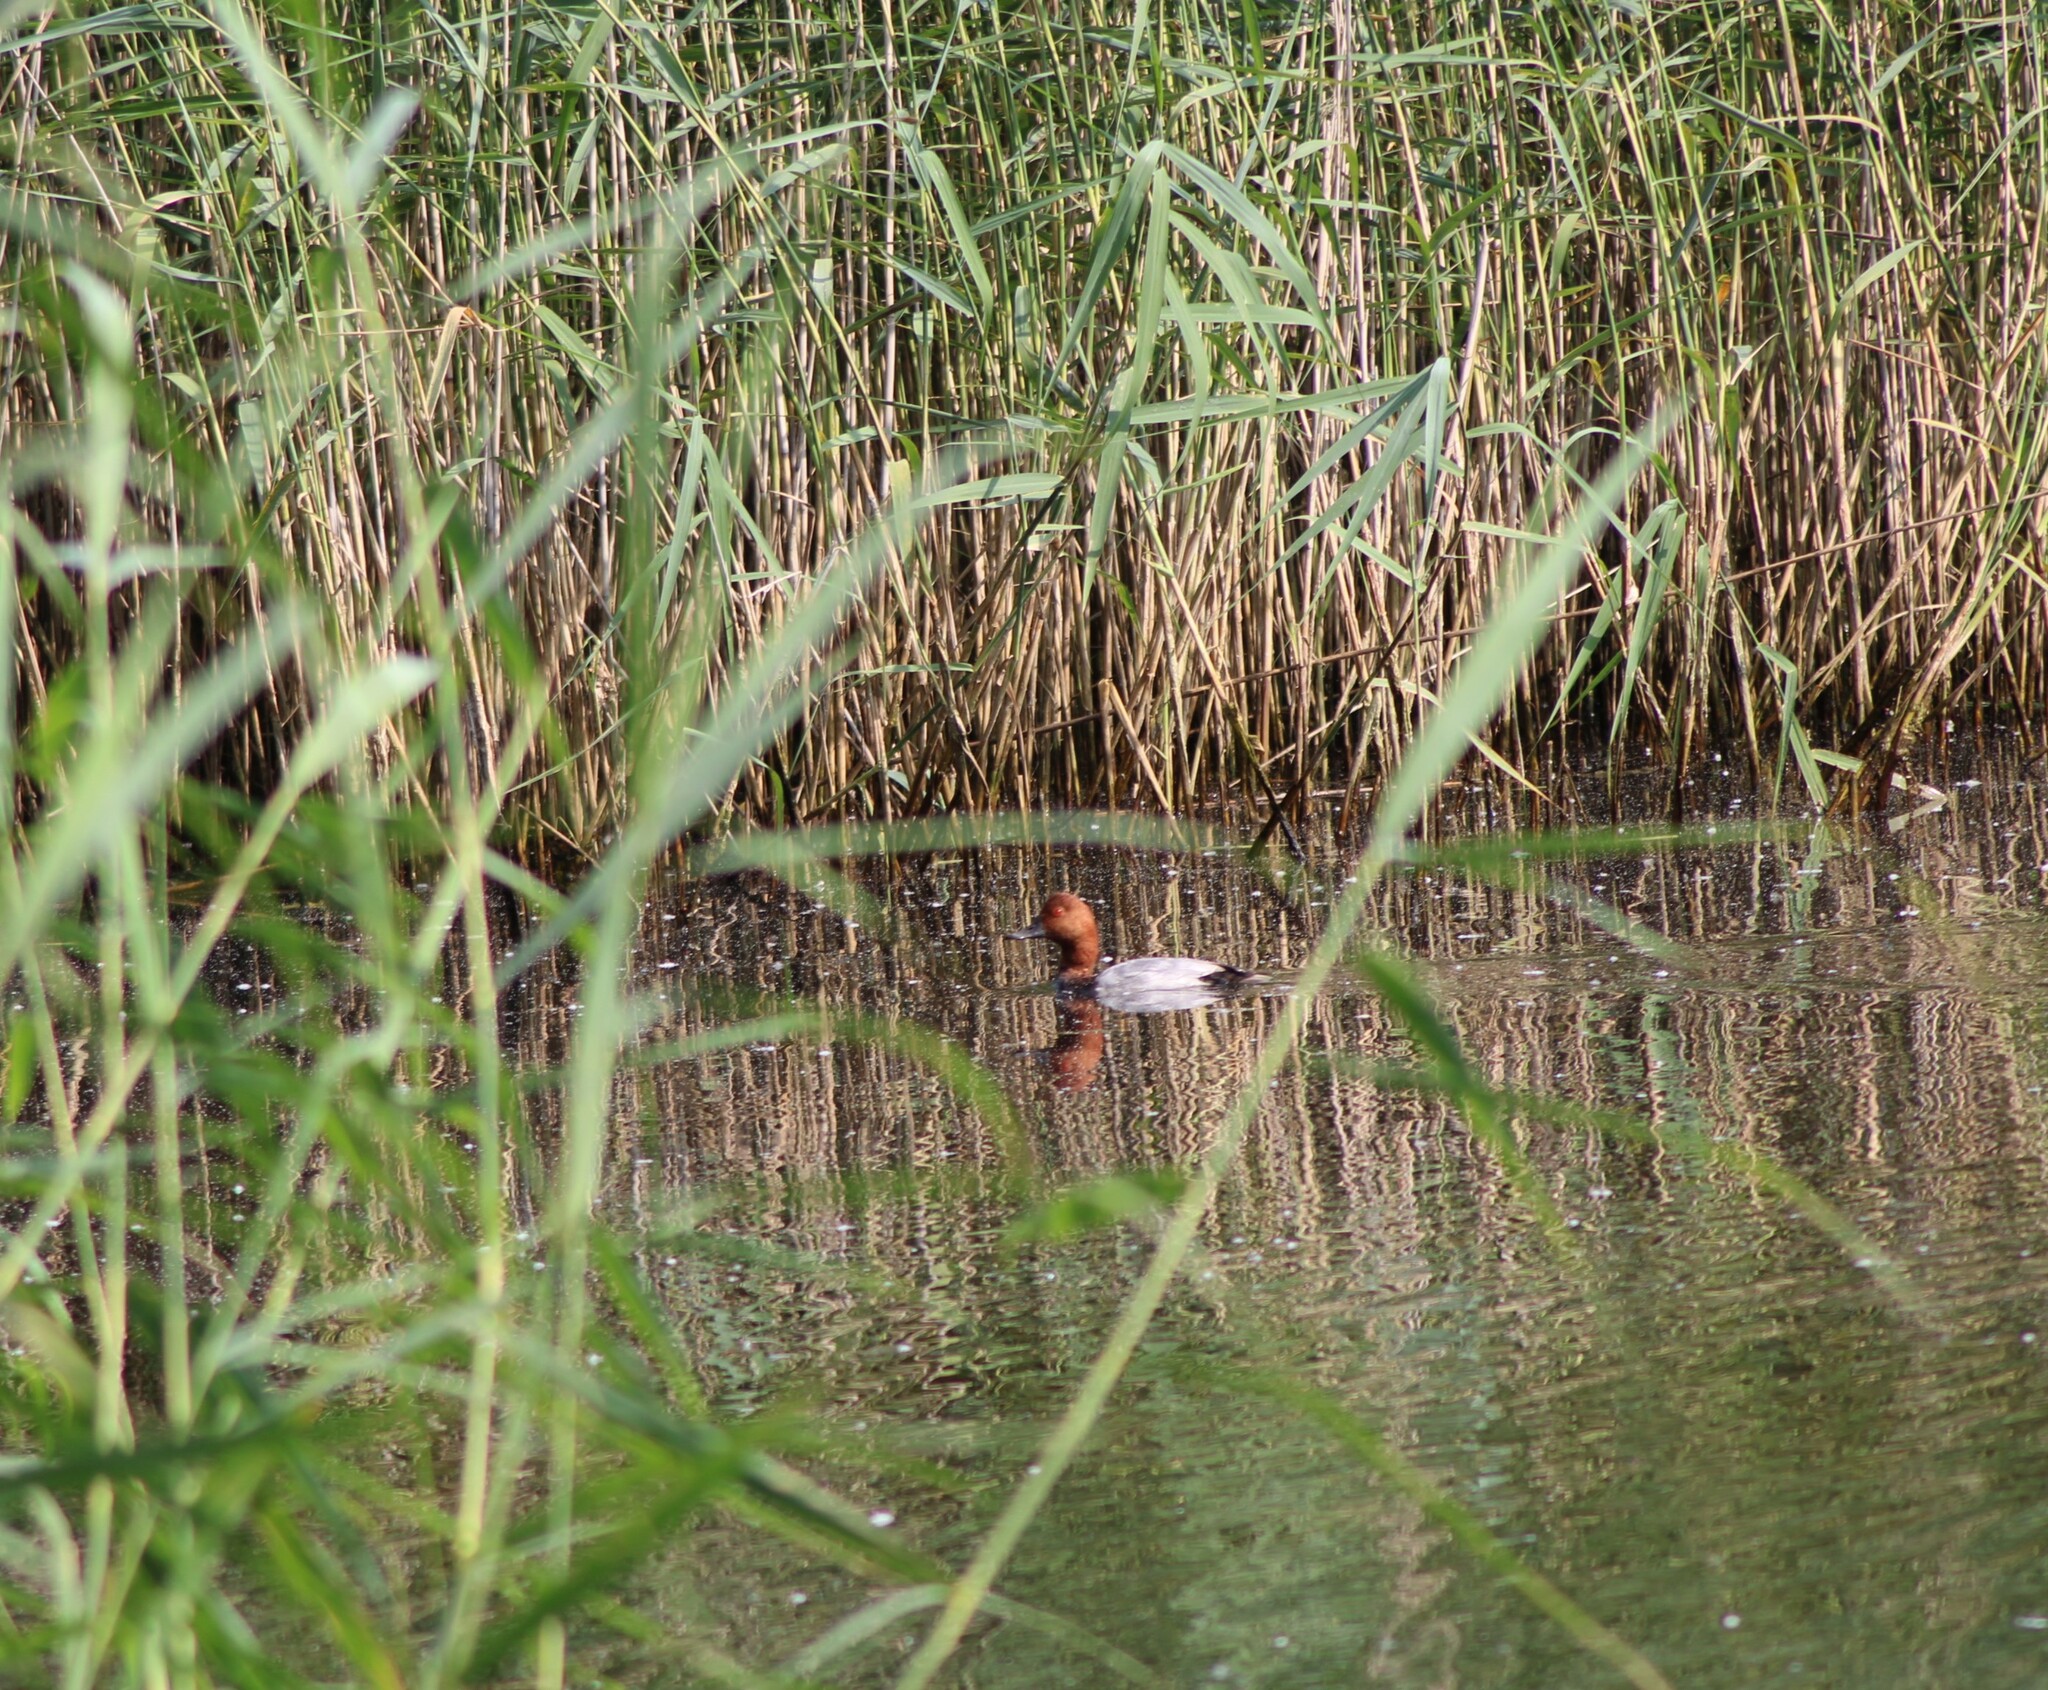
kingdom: Animalia
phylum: Chordata
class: Aves
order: Anseriformes
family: Anatidae
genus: Aythya
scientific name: Aythya ferina
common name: Common pochard
